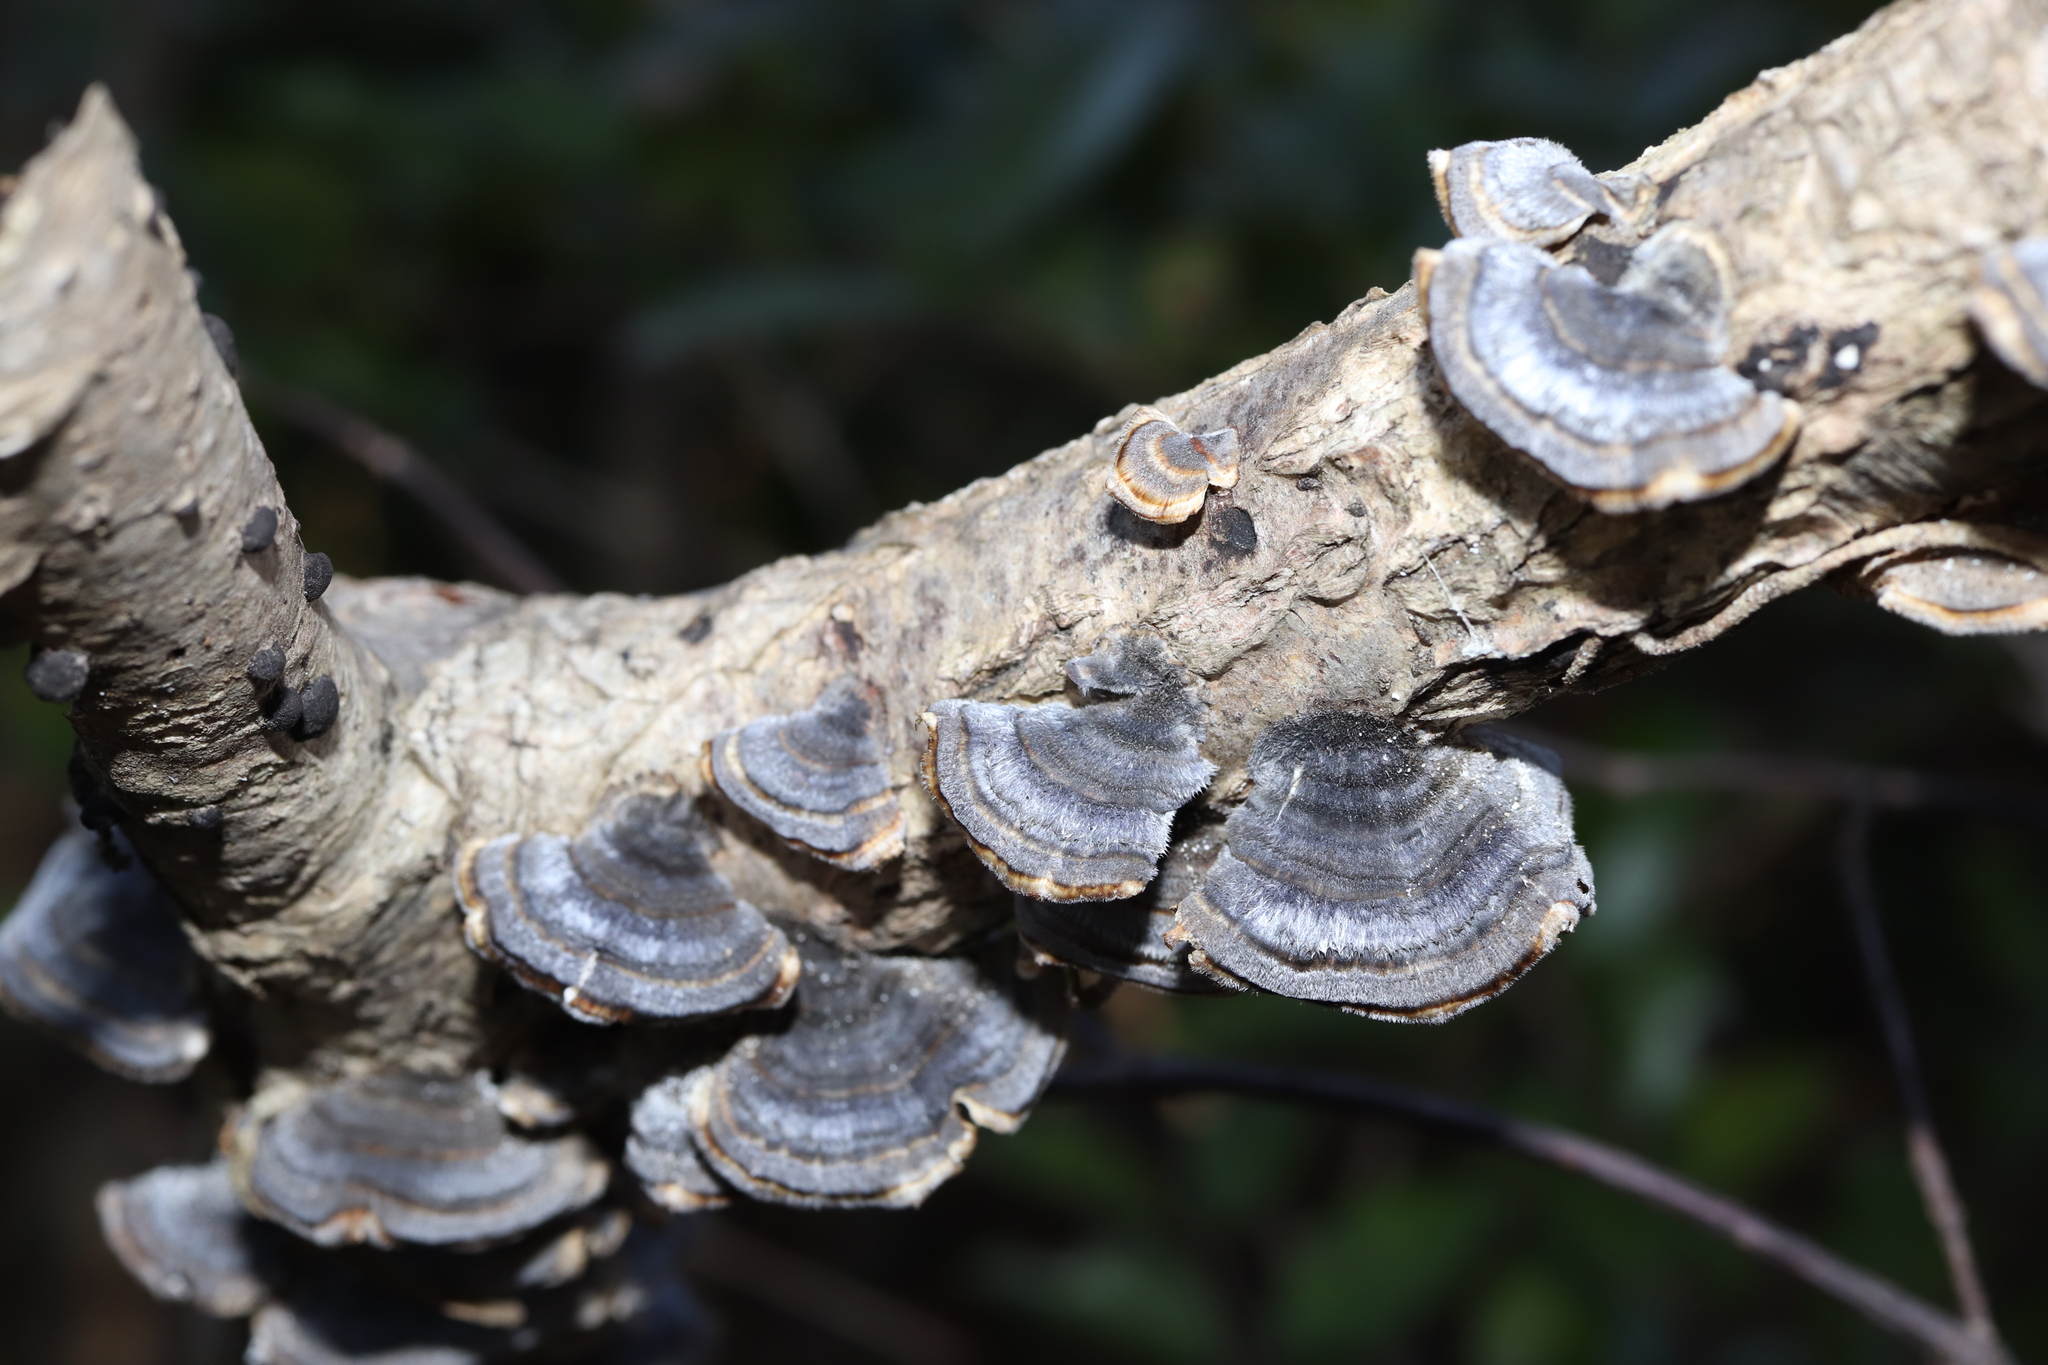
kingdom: Fungi
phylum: Basidiomycota
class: Agaricomycetes
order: Polyporales
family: Polyporaceae
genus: Trametes
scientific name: Trametes versicolor
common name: Turkeytail
